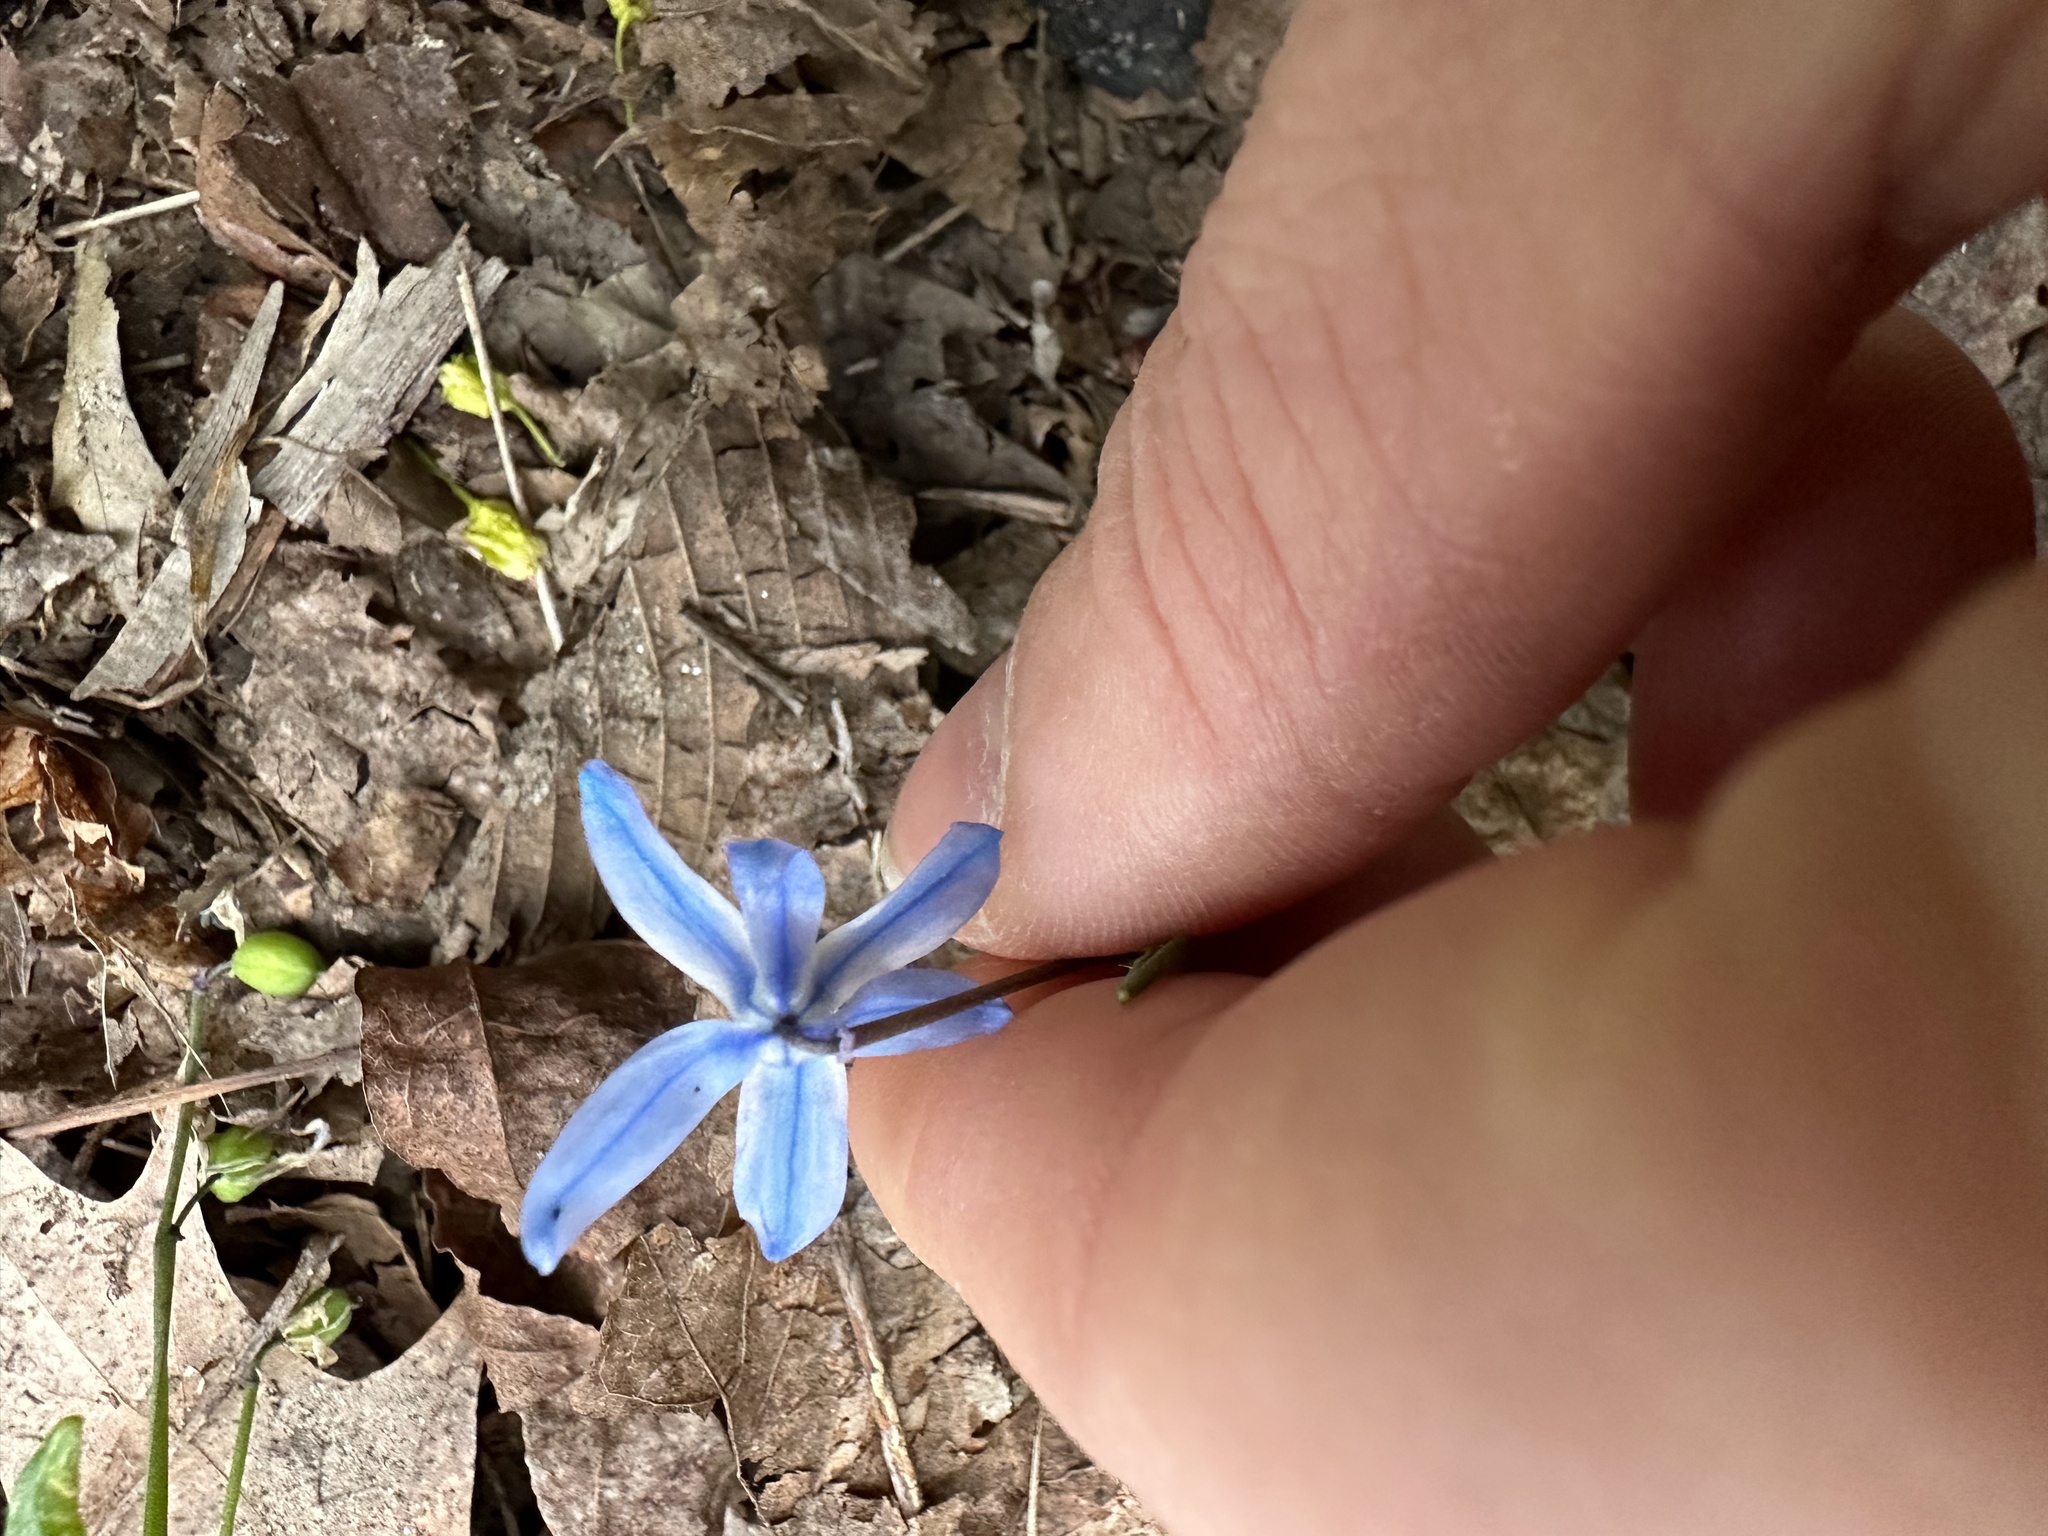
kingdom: Plantae
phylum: Tracheophyta
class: Liliopsida
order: Asparagales
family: Asparagaceae
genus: Scilla
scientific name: Scilla siberica
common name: Siberian squill
